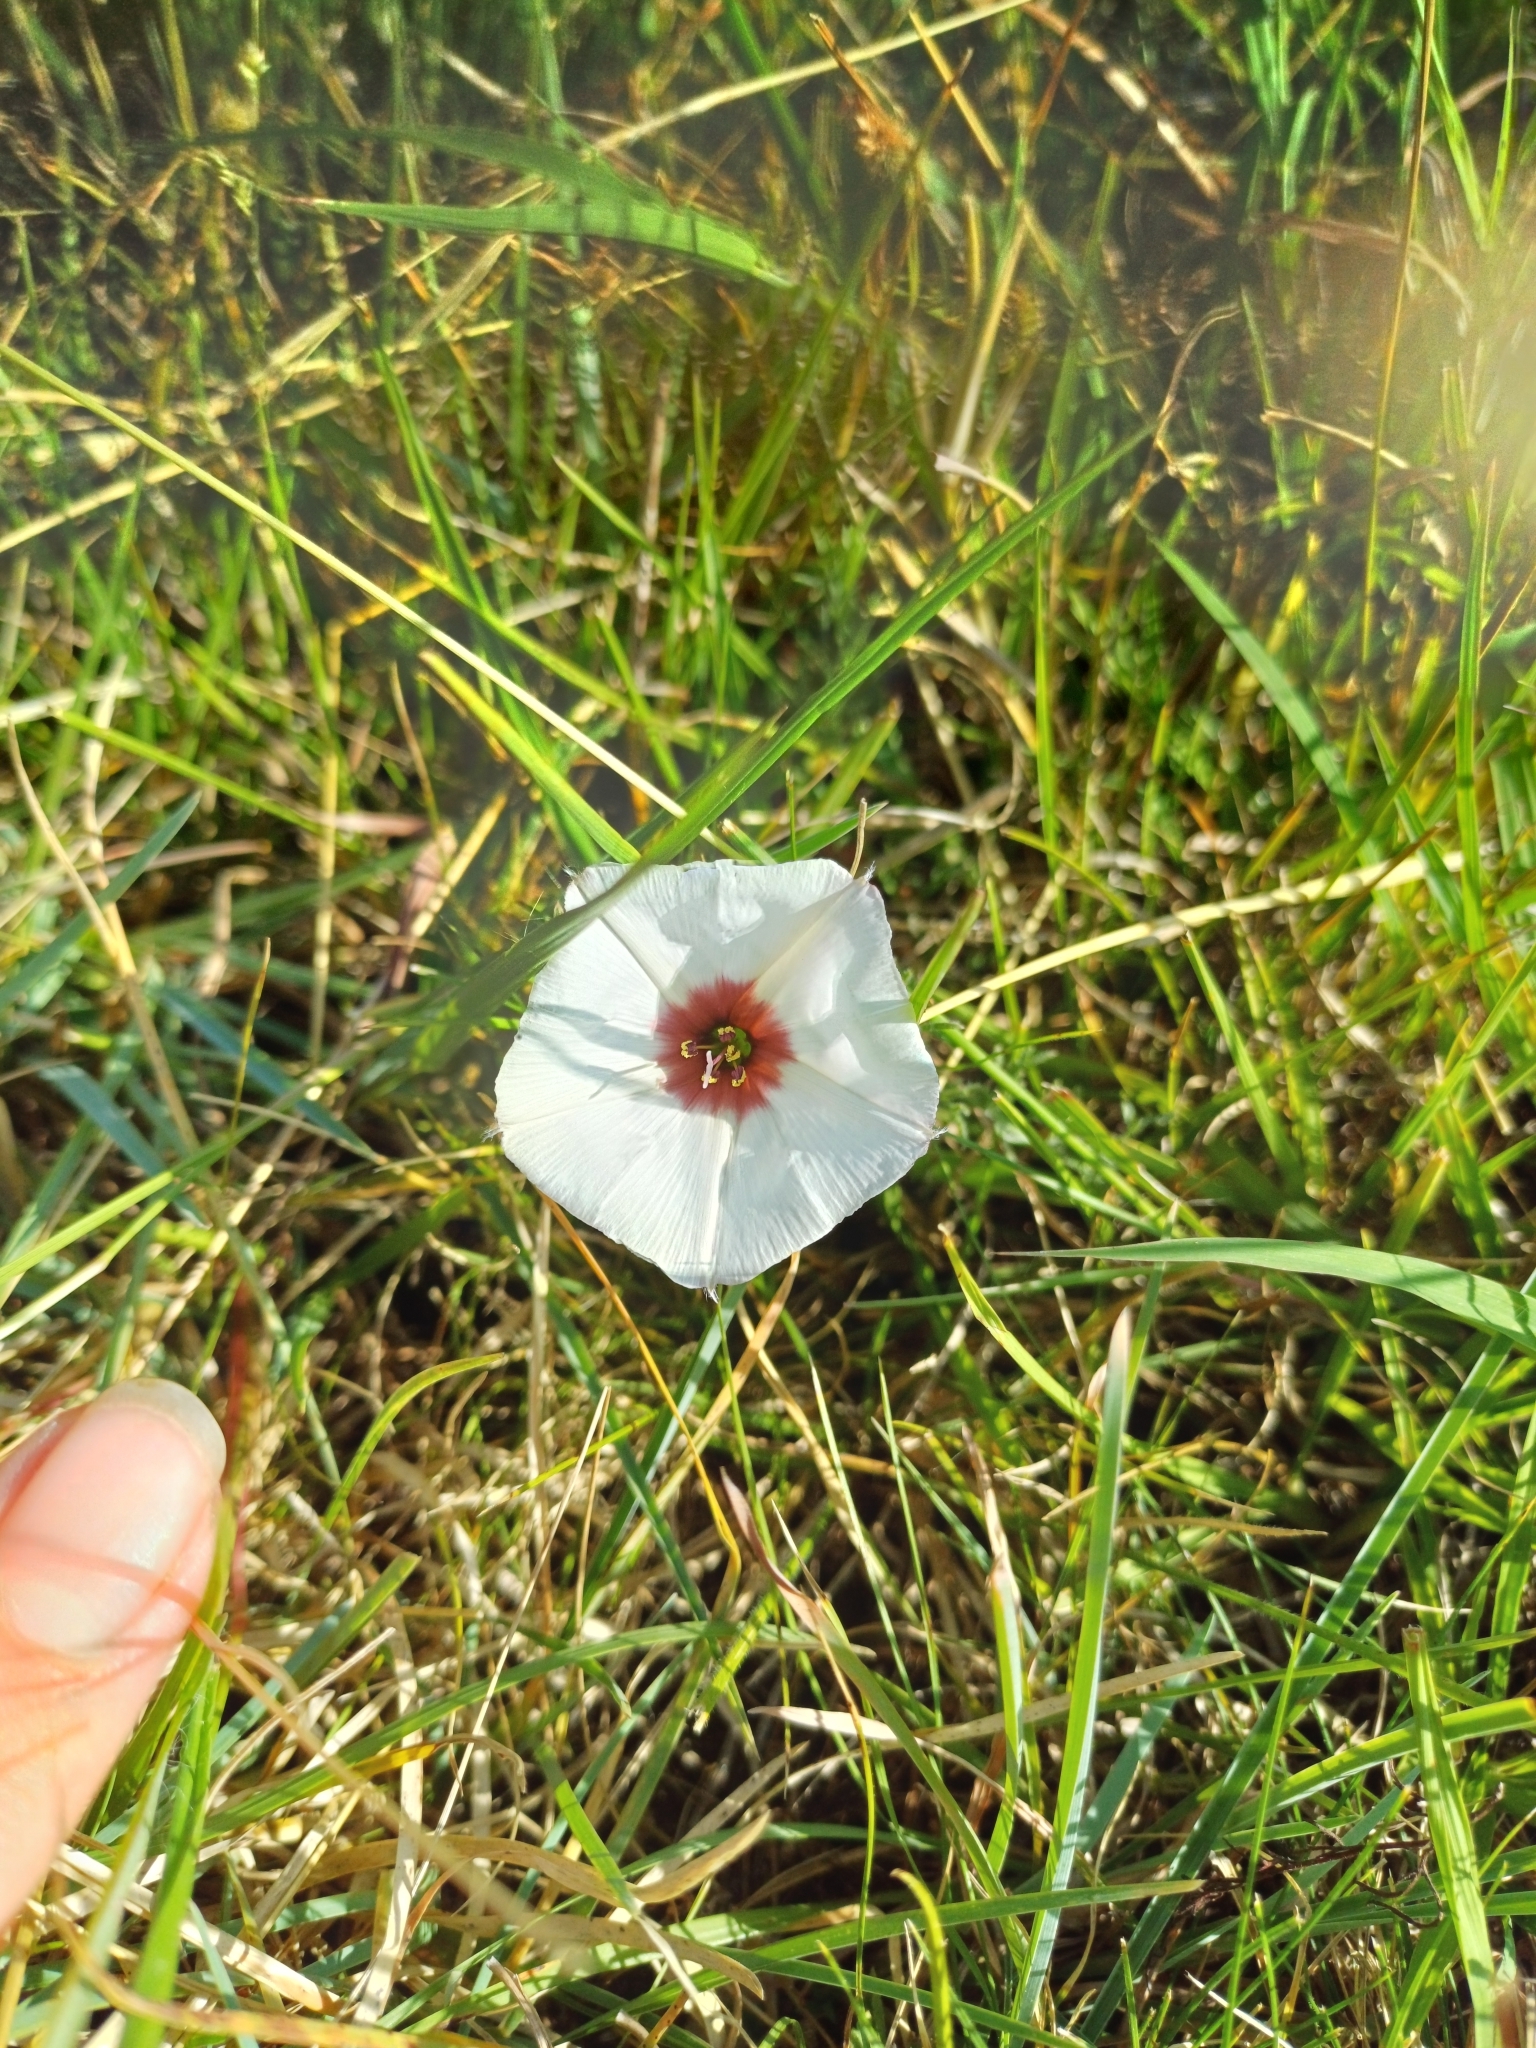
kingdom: Plantae
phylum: Tracheophyta
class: Magnoliopsida
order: Solanales
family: Convolvulaceae
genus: Convolvulus
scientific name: Convolvulus laciniatus
